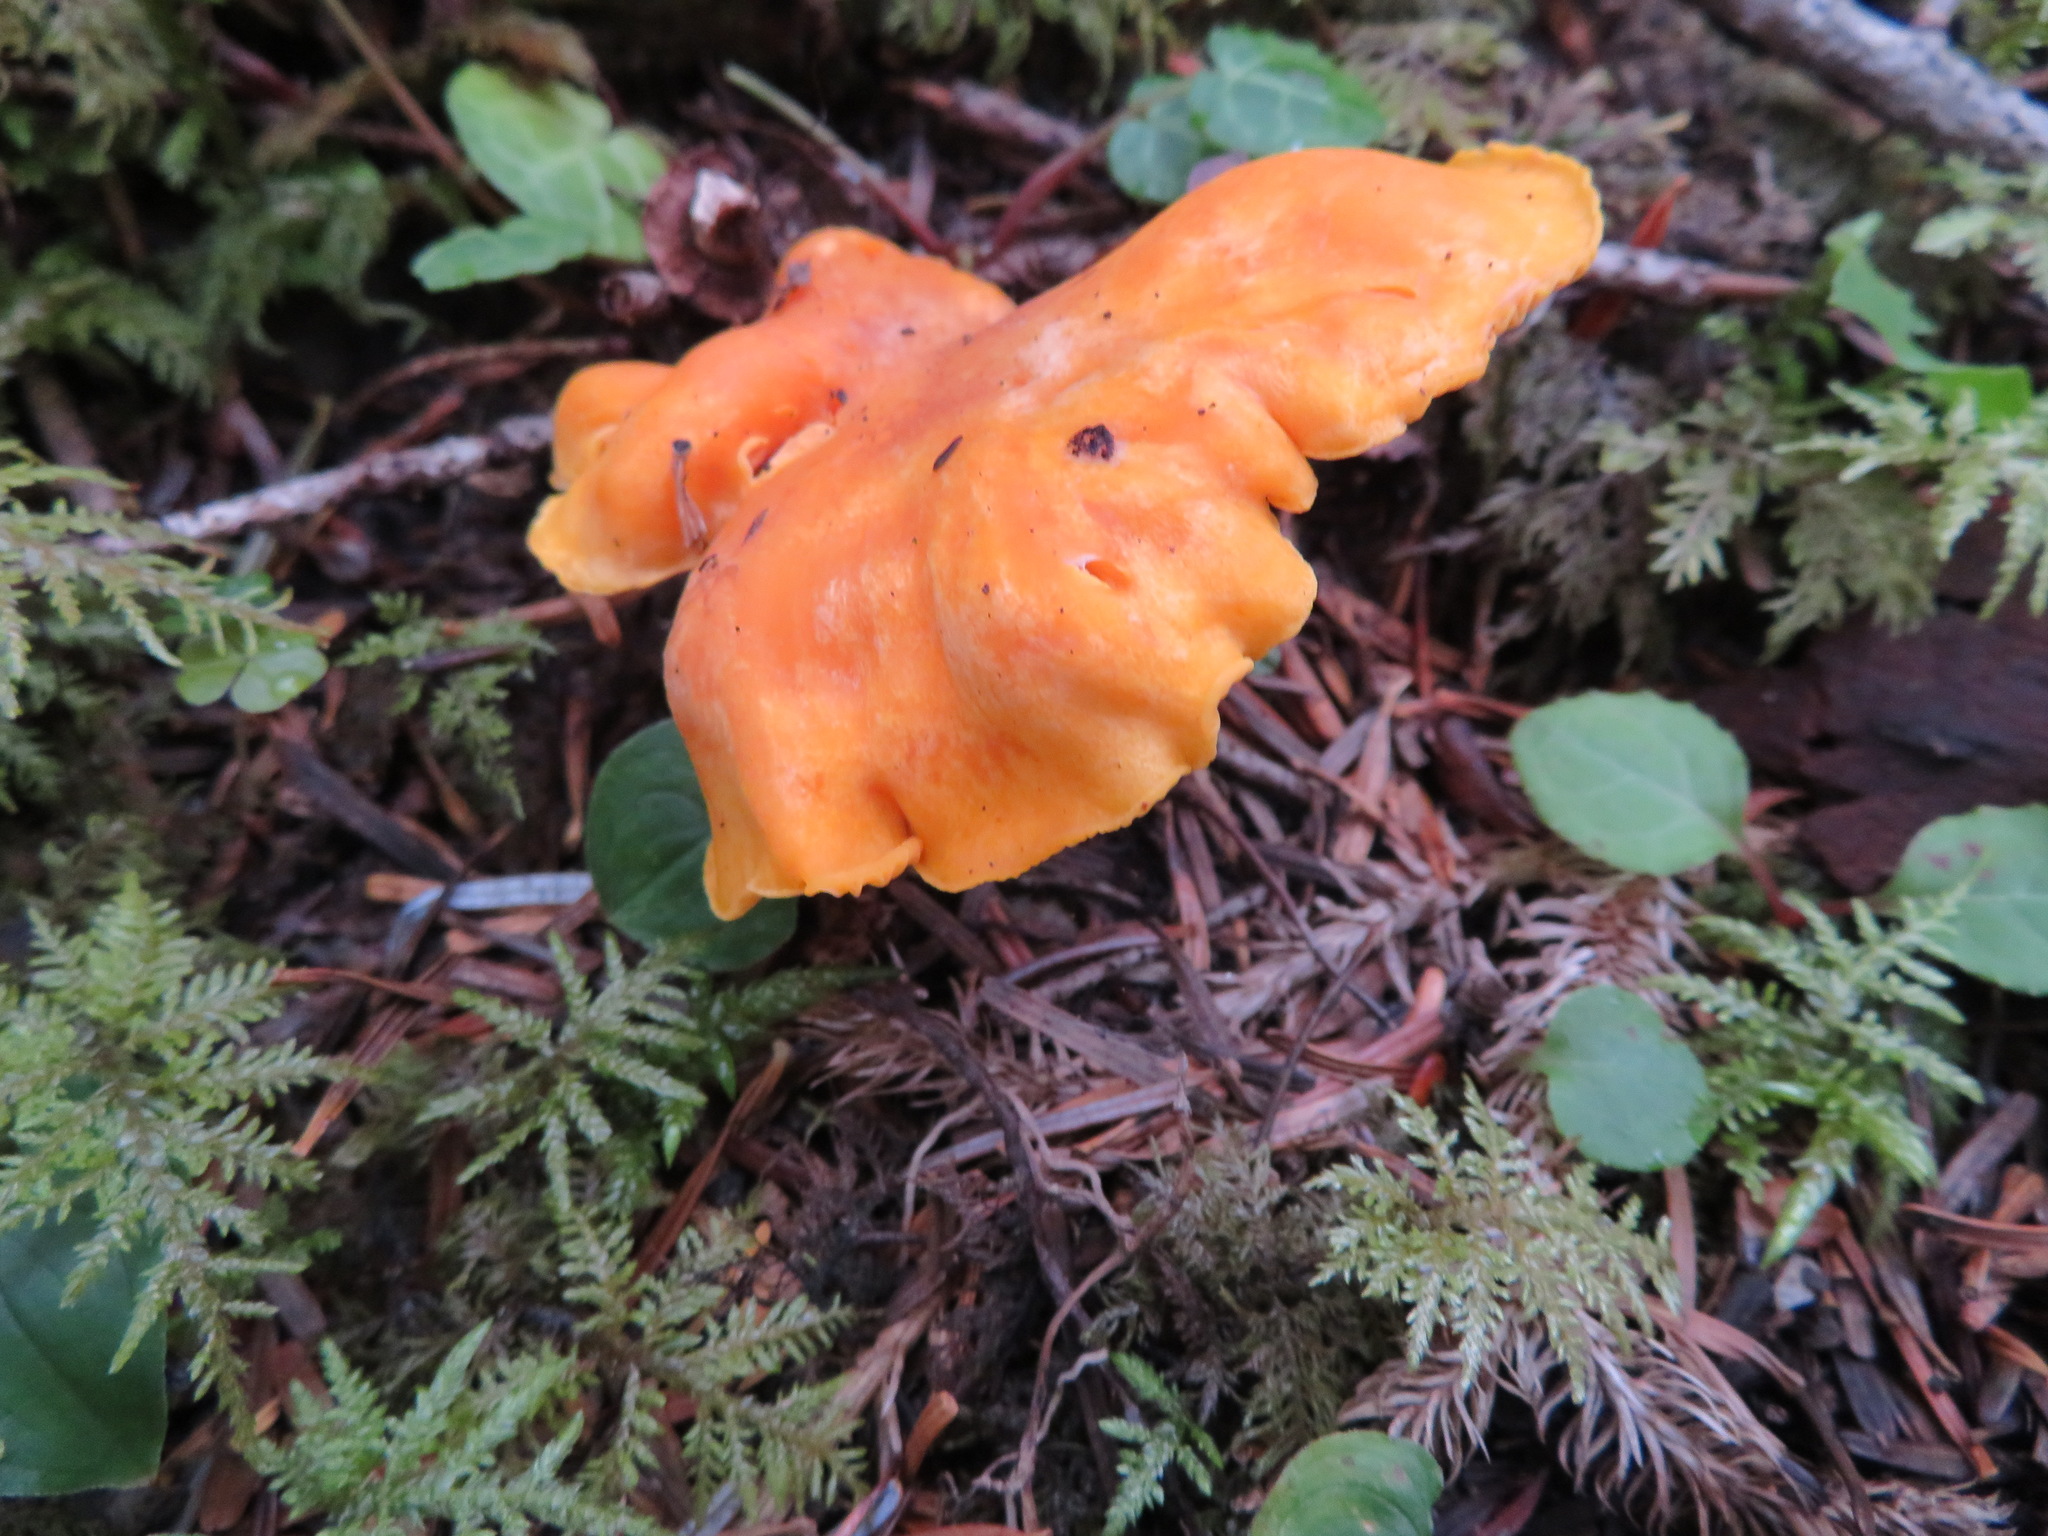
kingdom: Fungi
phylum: Basidiomycota
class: Agaricomycetes
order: Cantharellales
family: Hydnaceae
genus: Cantharellus
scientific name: Cantharellus cibarius
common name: Chanterelle
